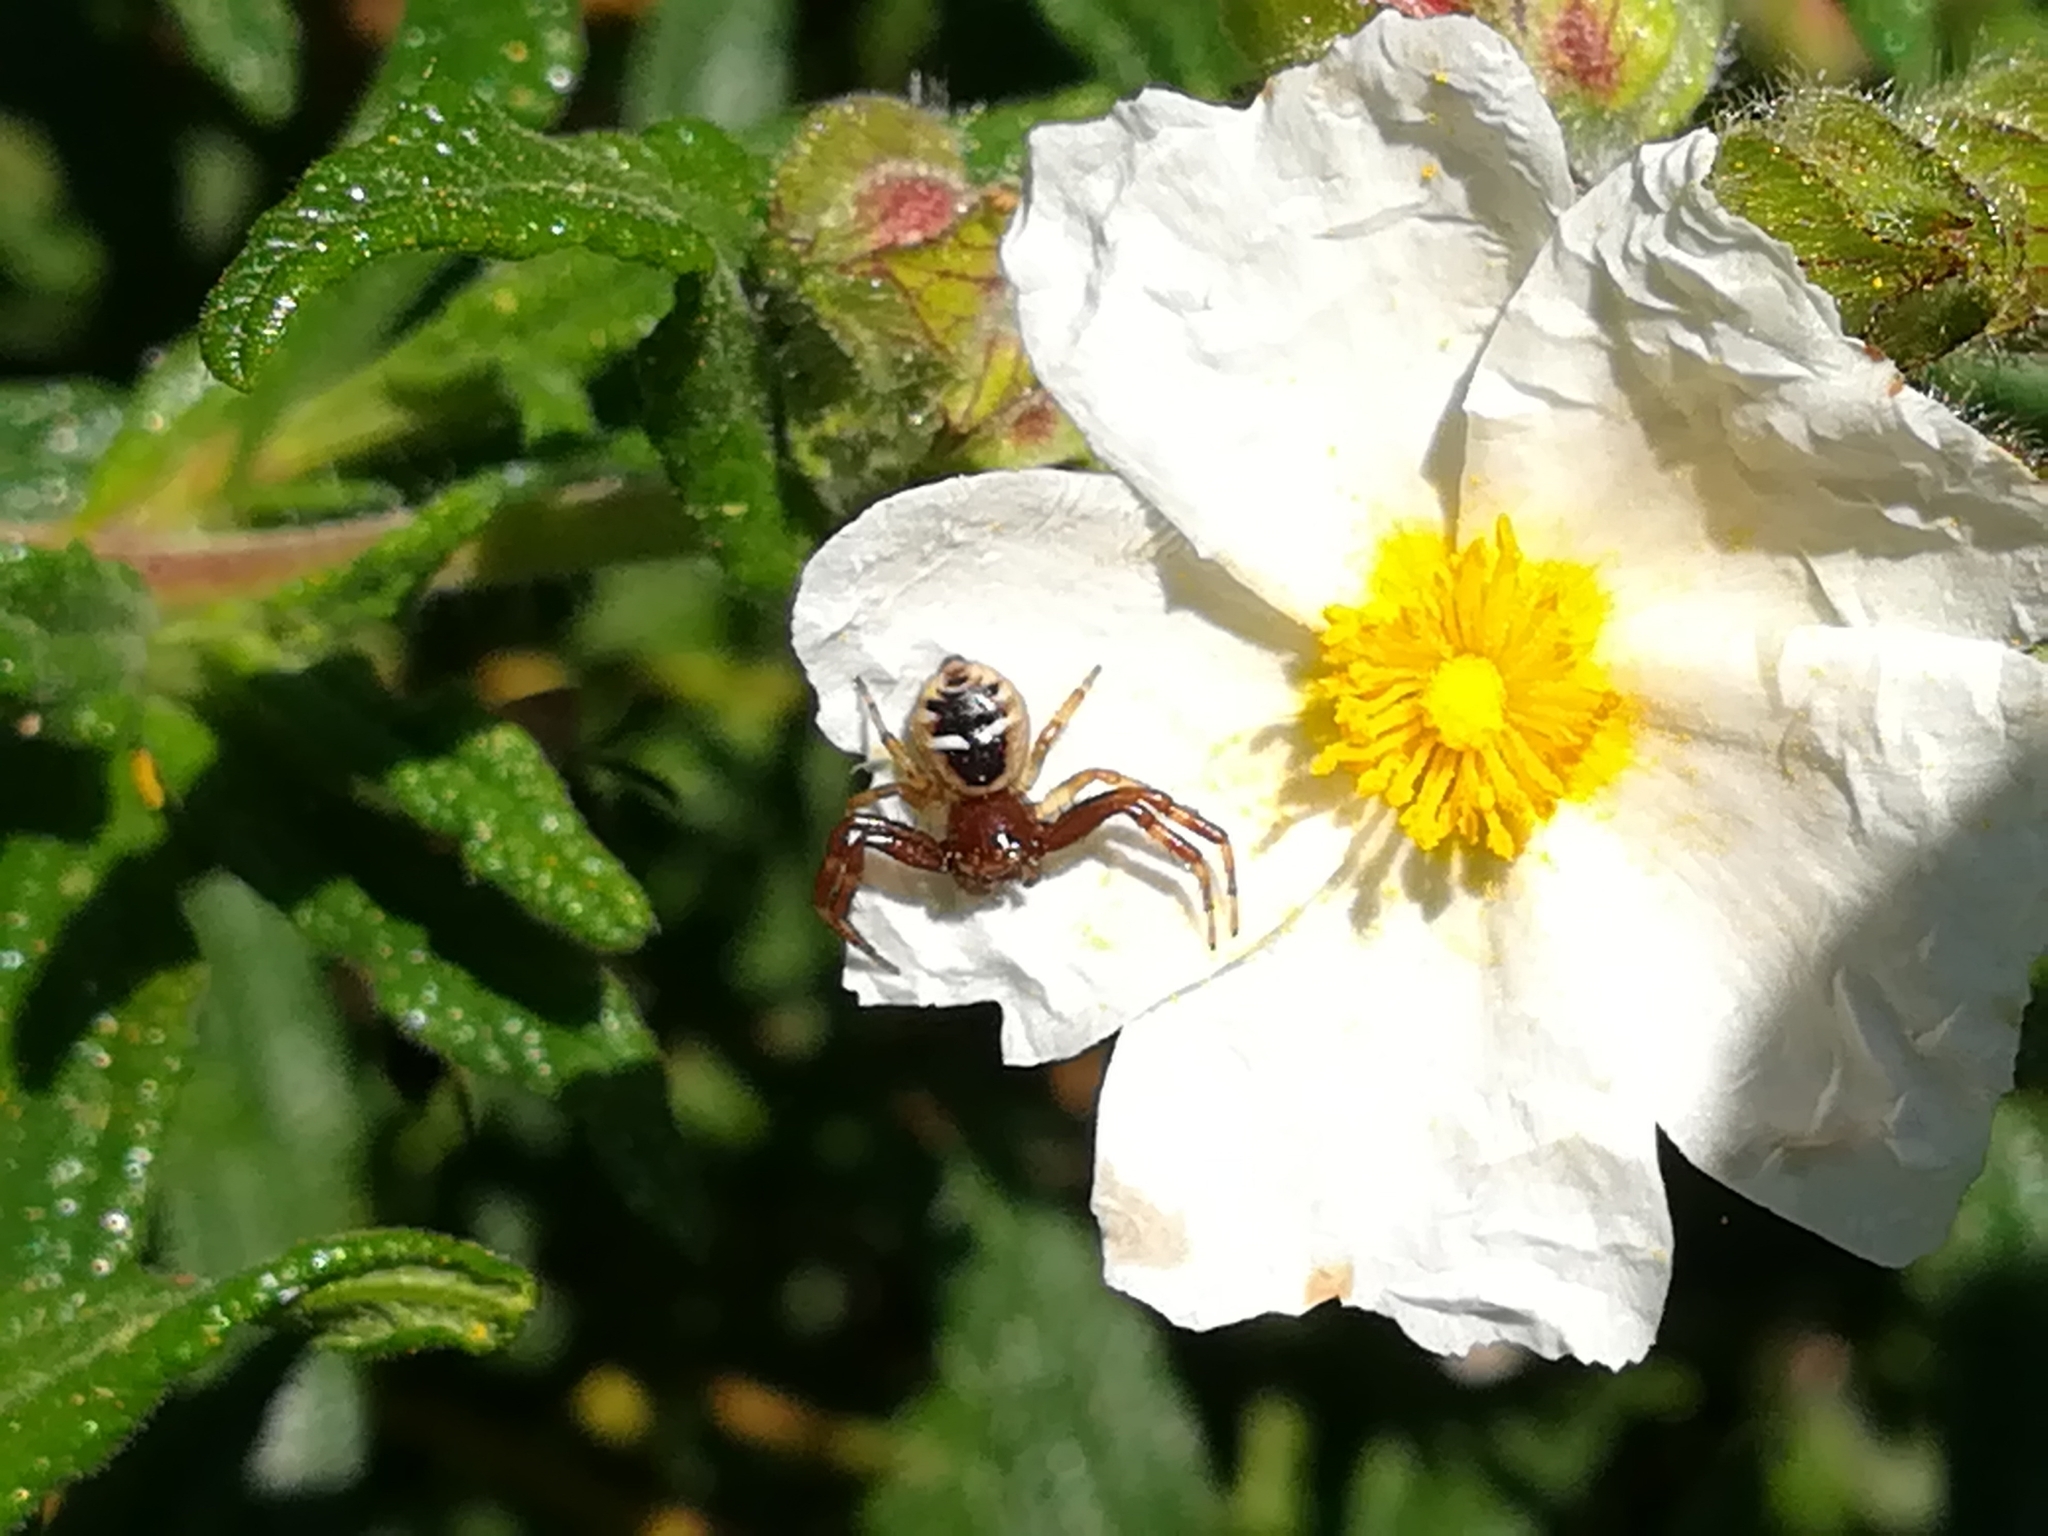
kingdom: Animalia
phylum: Arthropoda
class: Arachnida
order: Araneae
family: Thomisidae
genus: Synema
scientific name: Synema globosum
